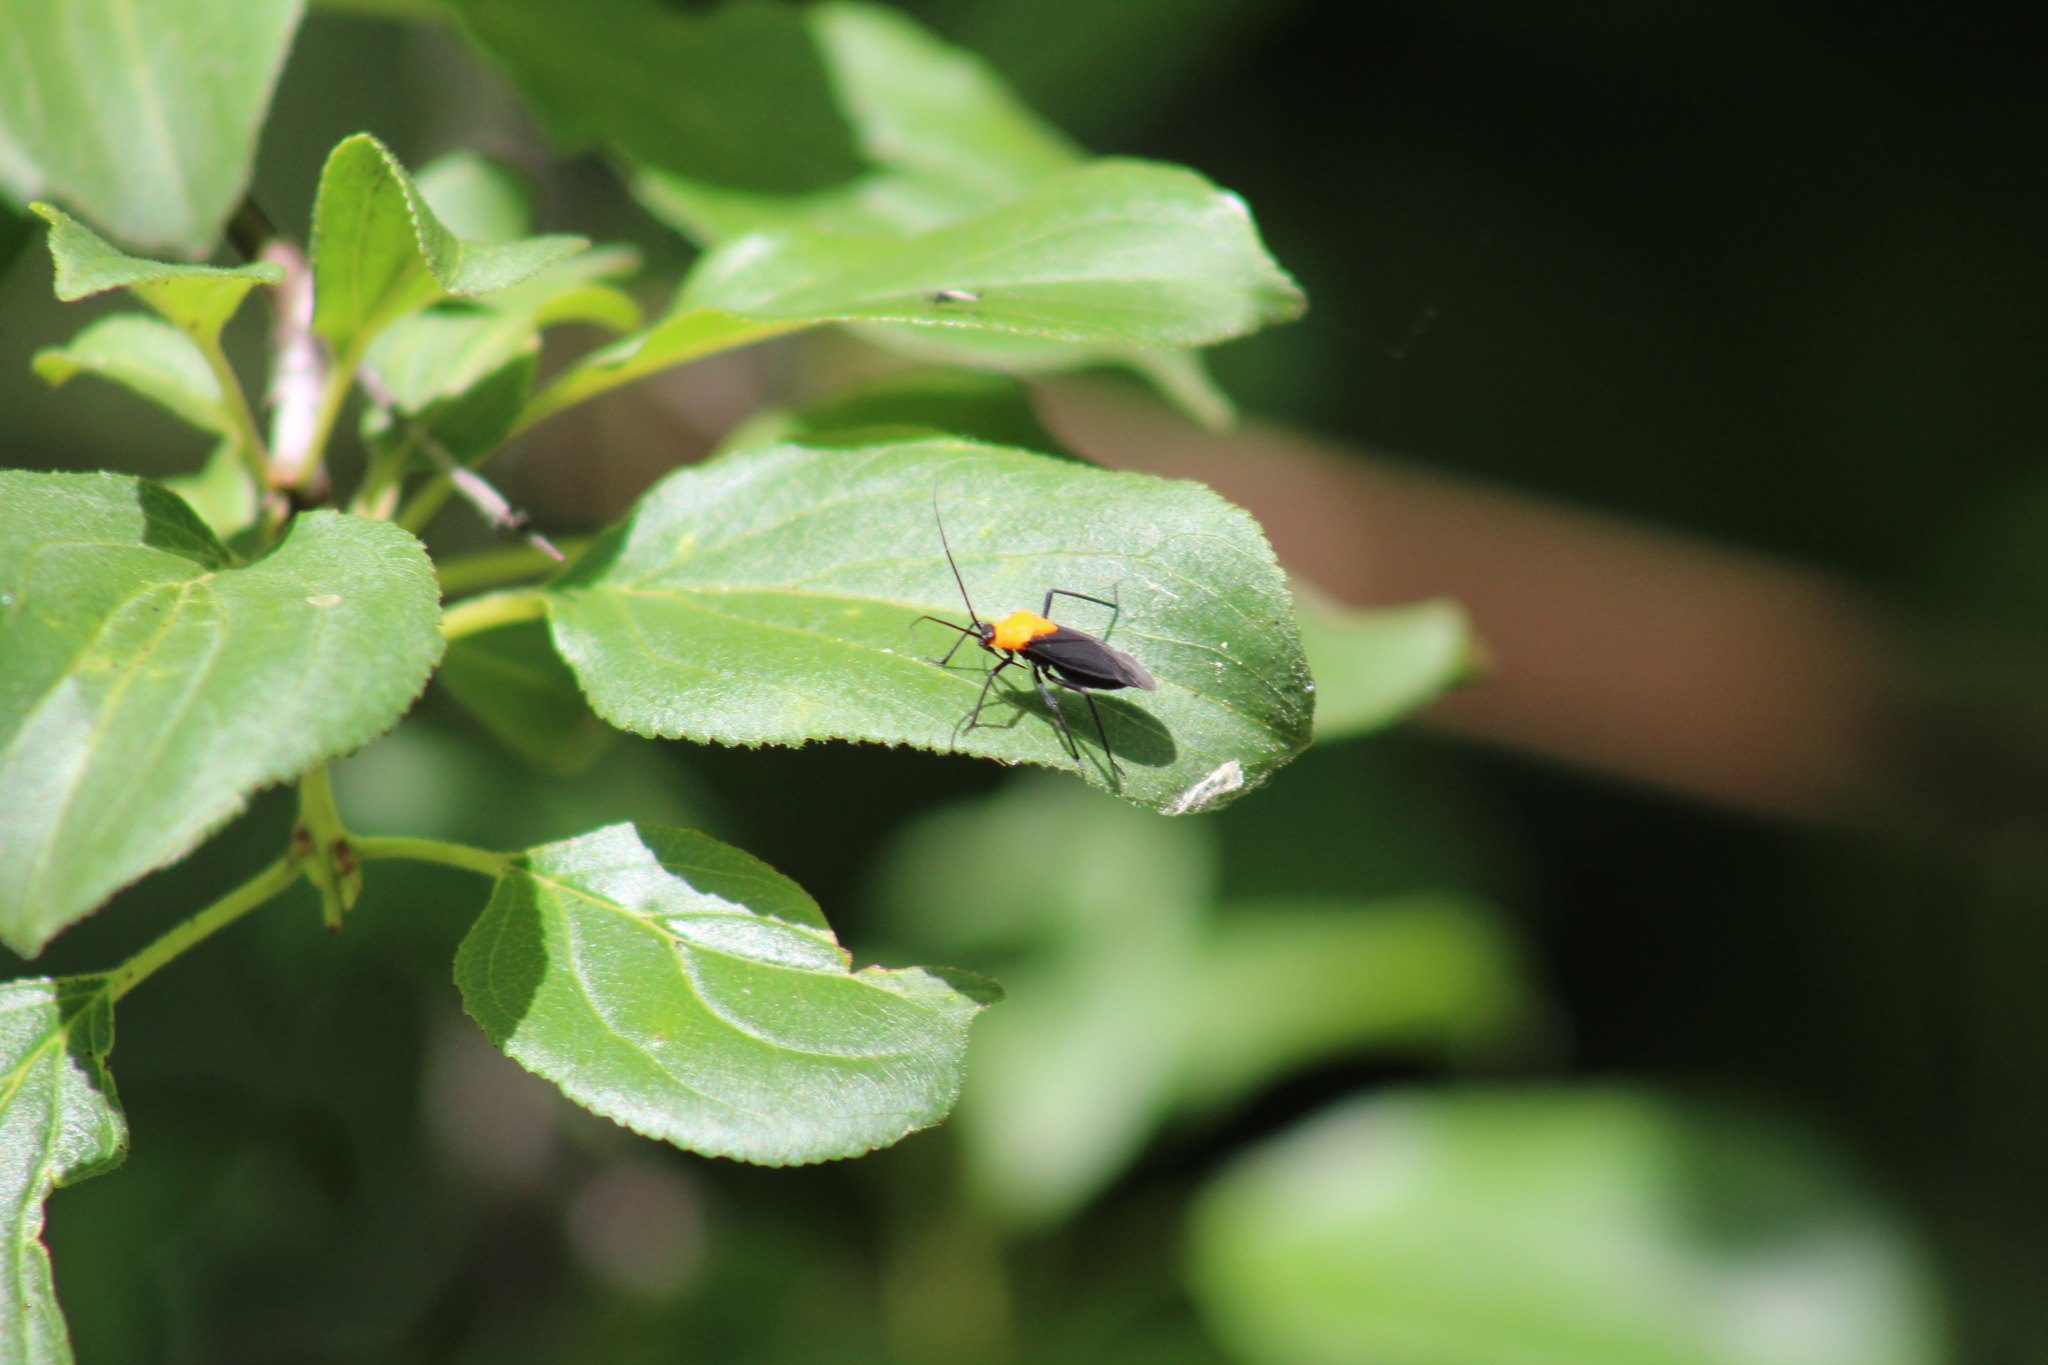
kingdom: Animalia
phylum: Arthropoda
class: Insecta
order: Hemiptera
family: Miridae
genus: Prepops
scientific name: Prepops insitivus
